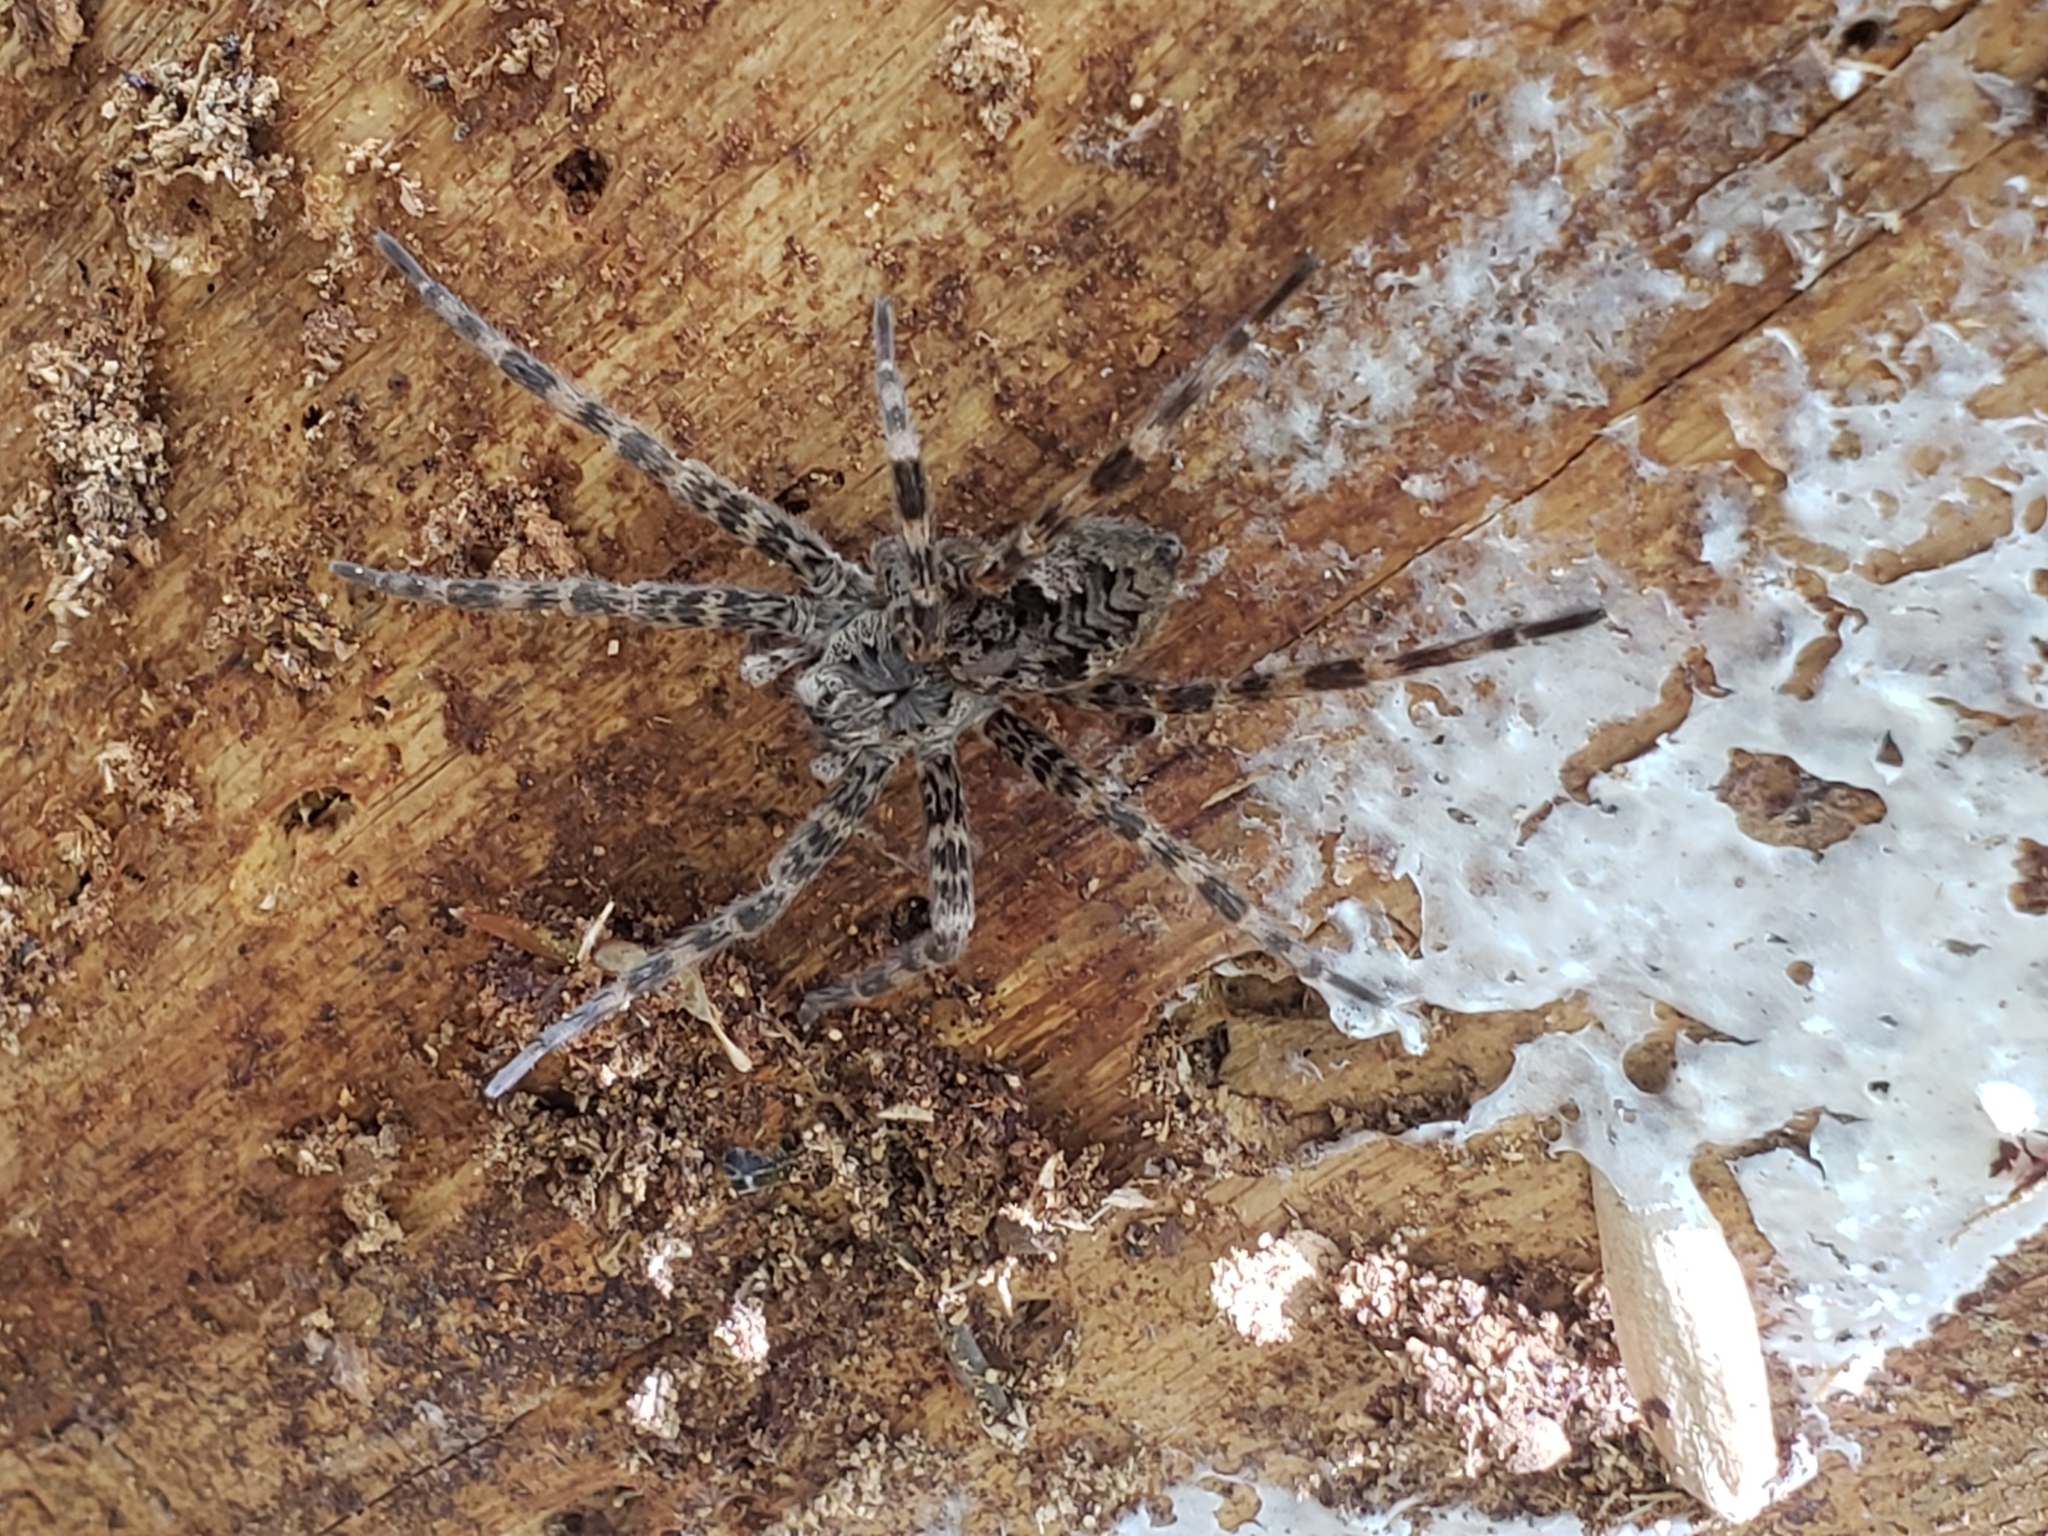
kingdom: Animalia
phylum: Arthropoda
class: Arachnida
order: Araneae
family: Pisauridae
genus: Dolomedes
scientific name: Dolomedes tenebrosus
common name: Dark fishing spider
